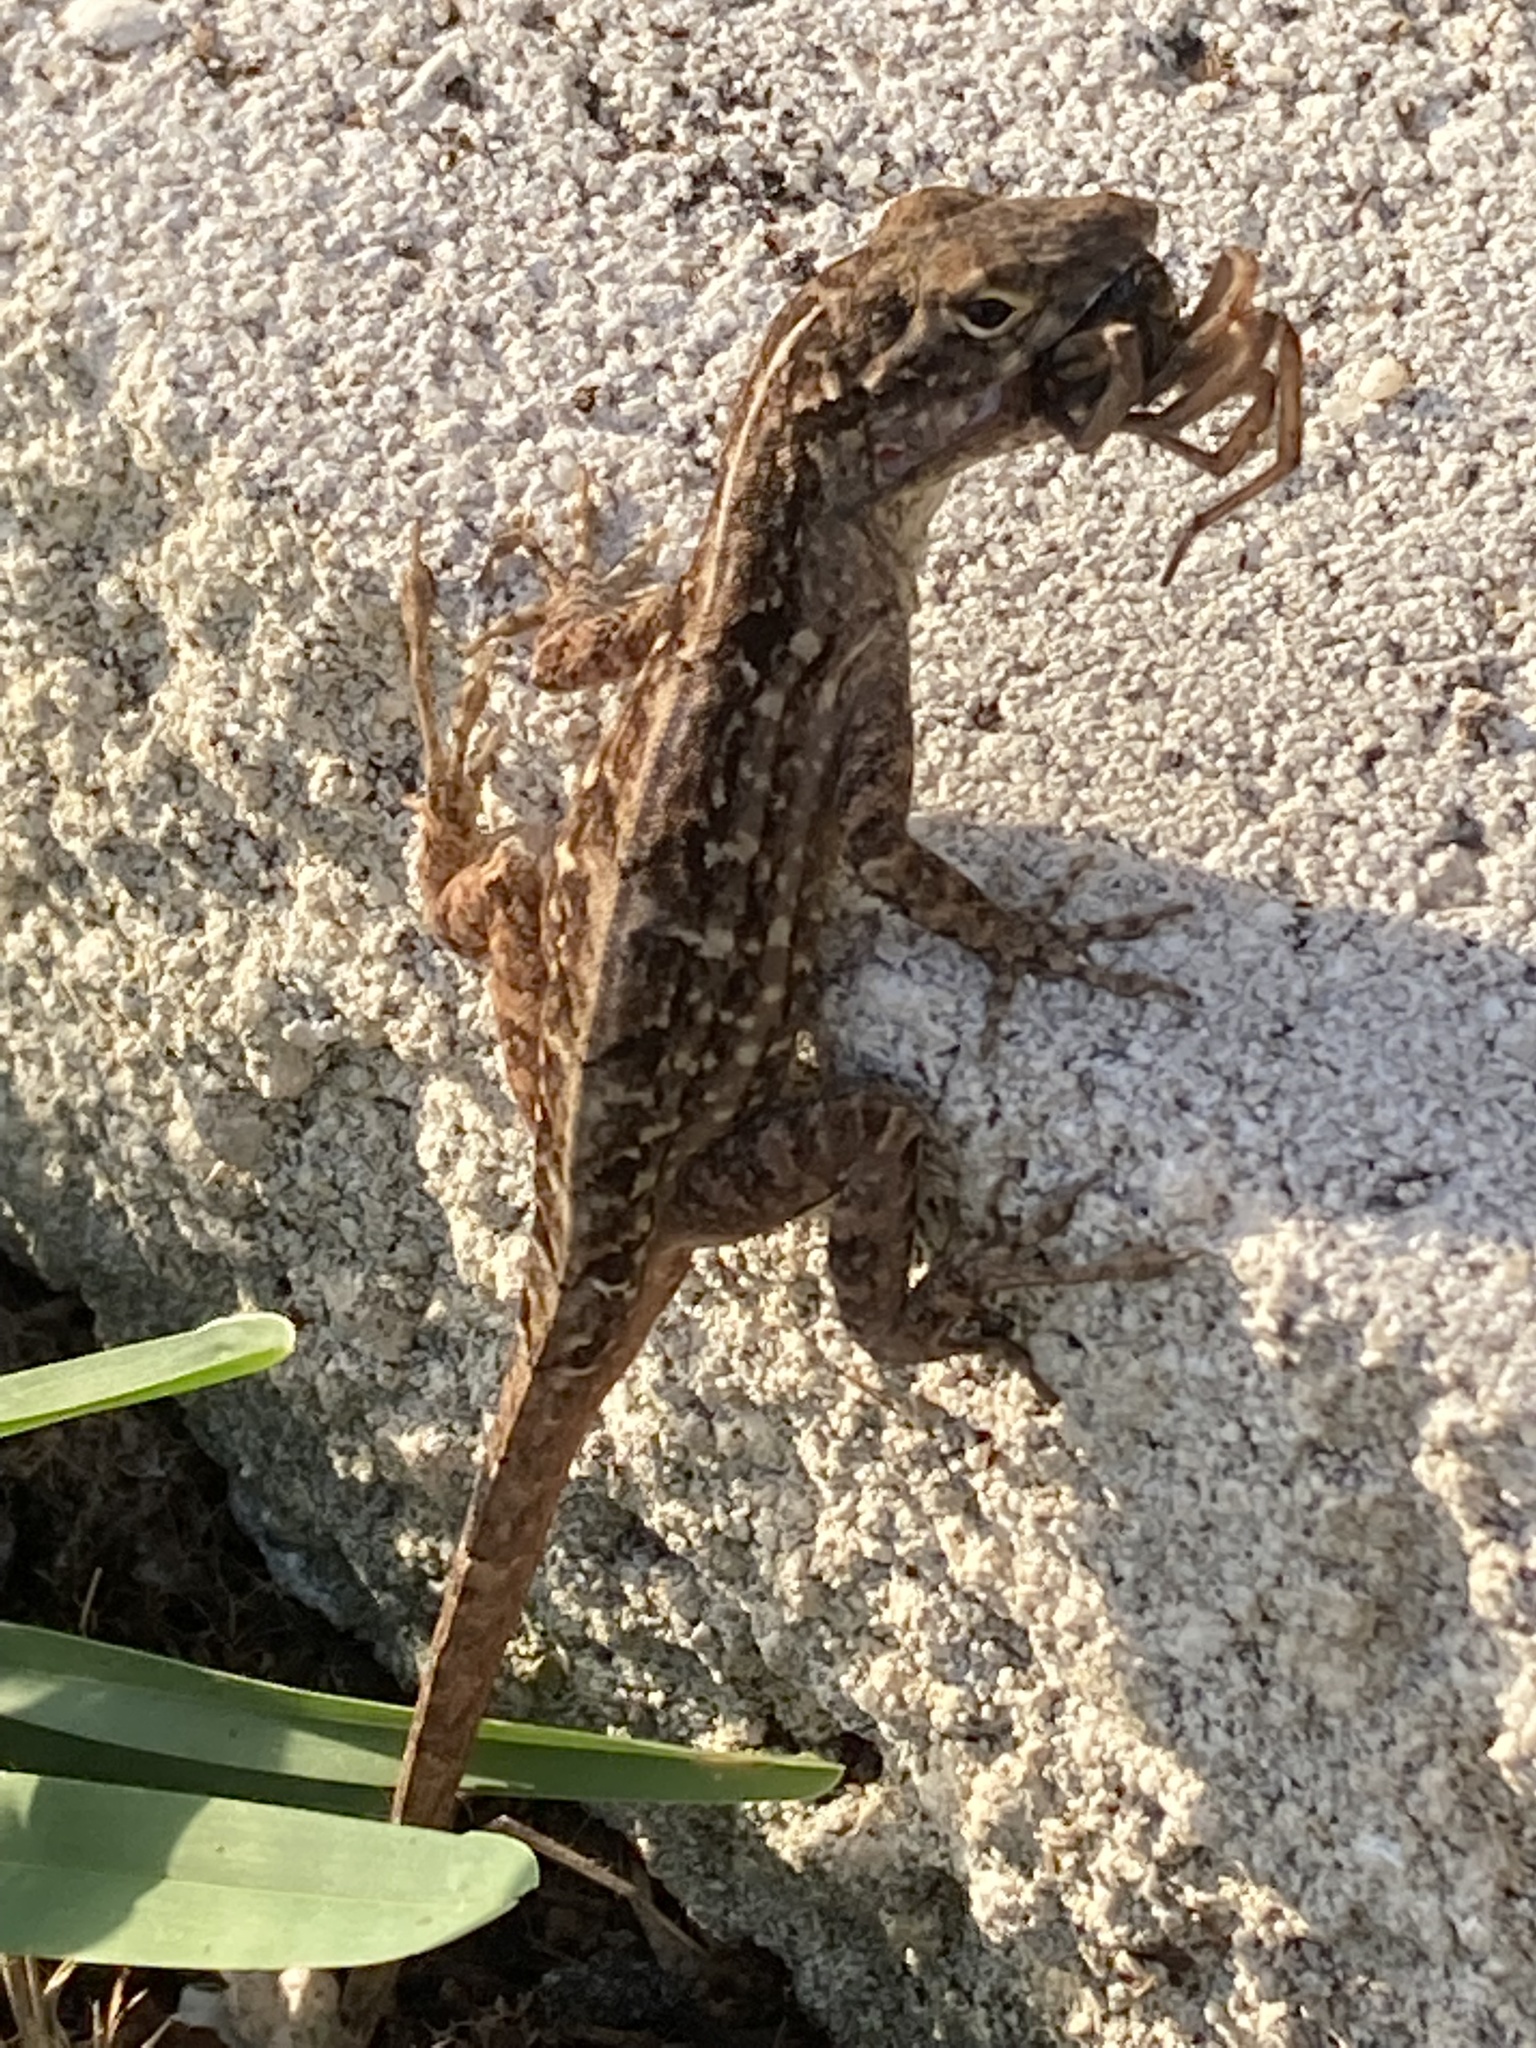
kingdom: Animalia
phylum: Chordata
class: Squamata
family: Dactyloidae
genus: Anolis
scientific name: Anolis sagrei
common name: Brown anole
